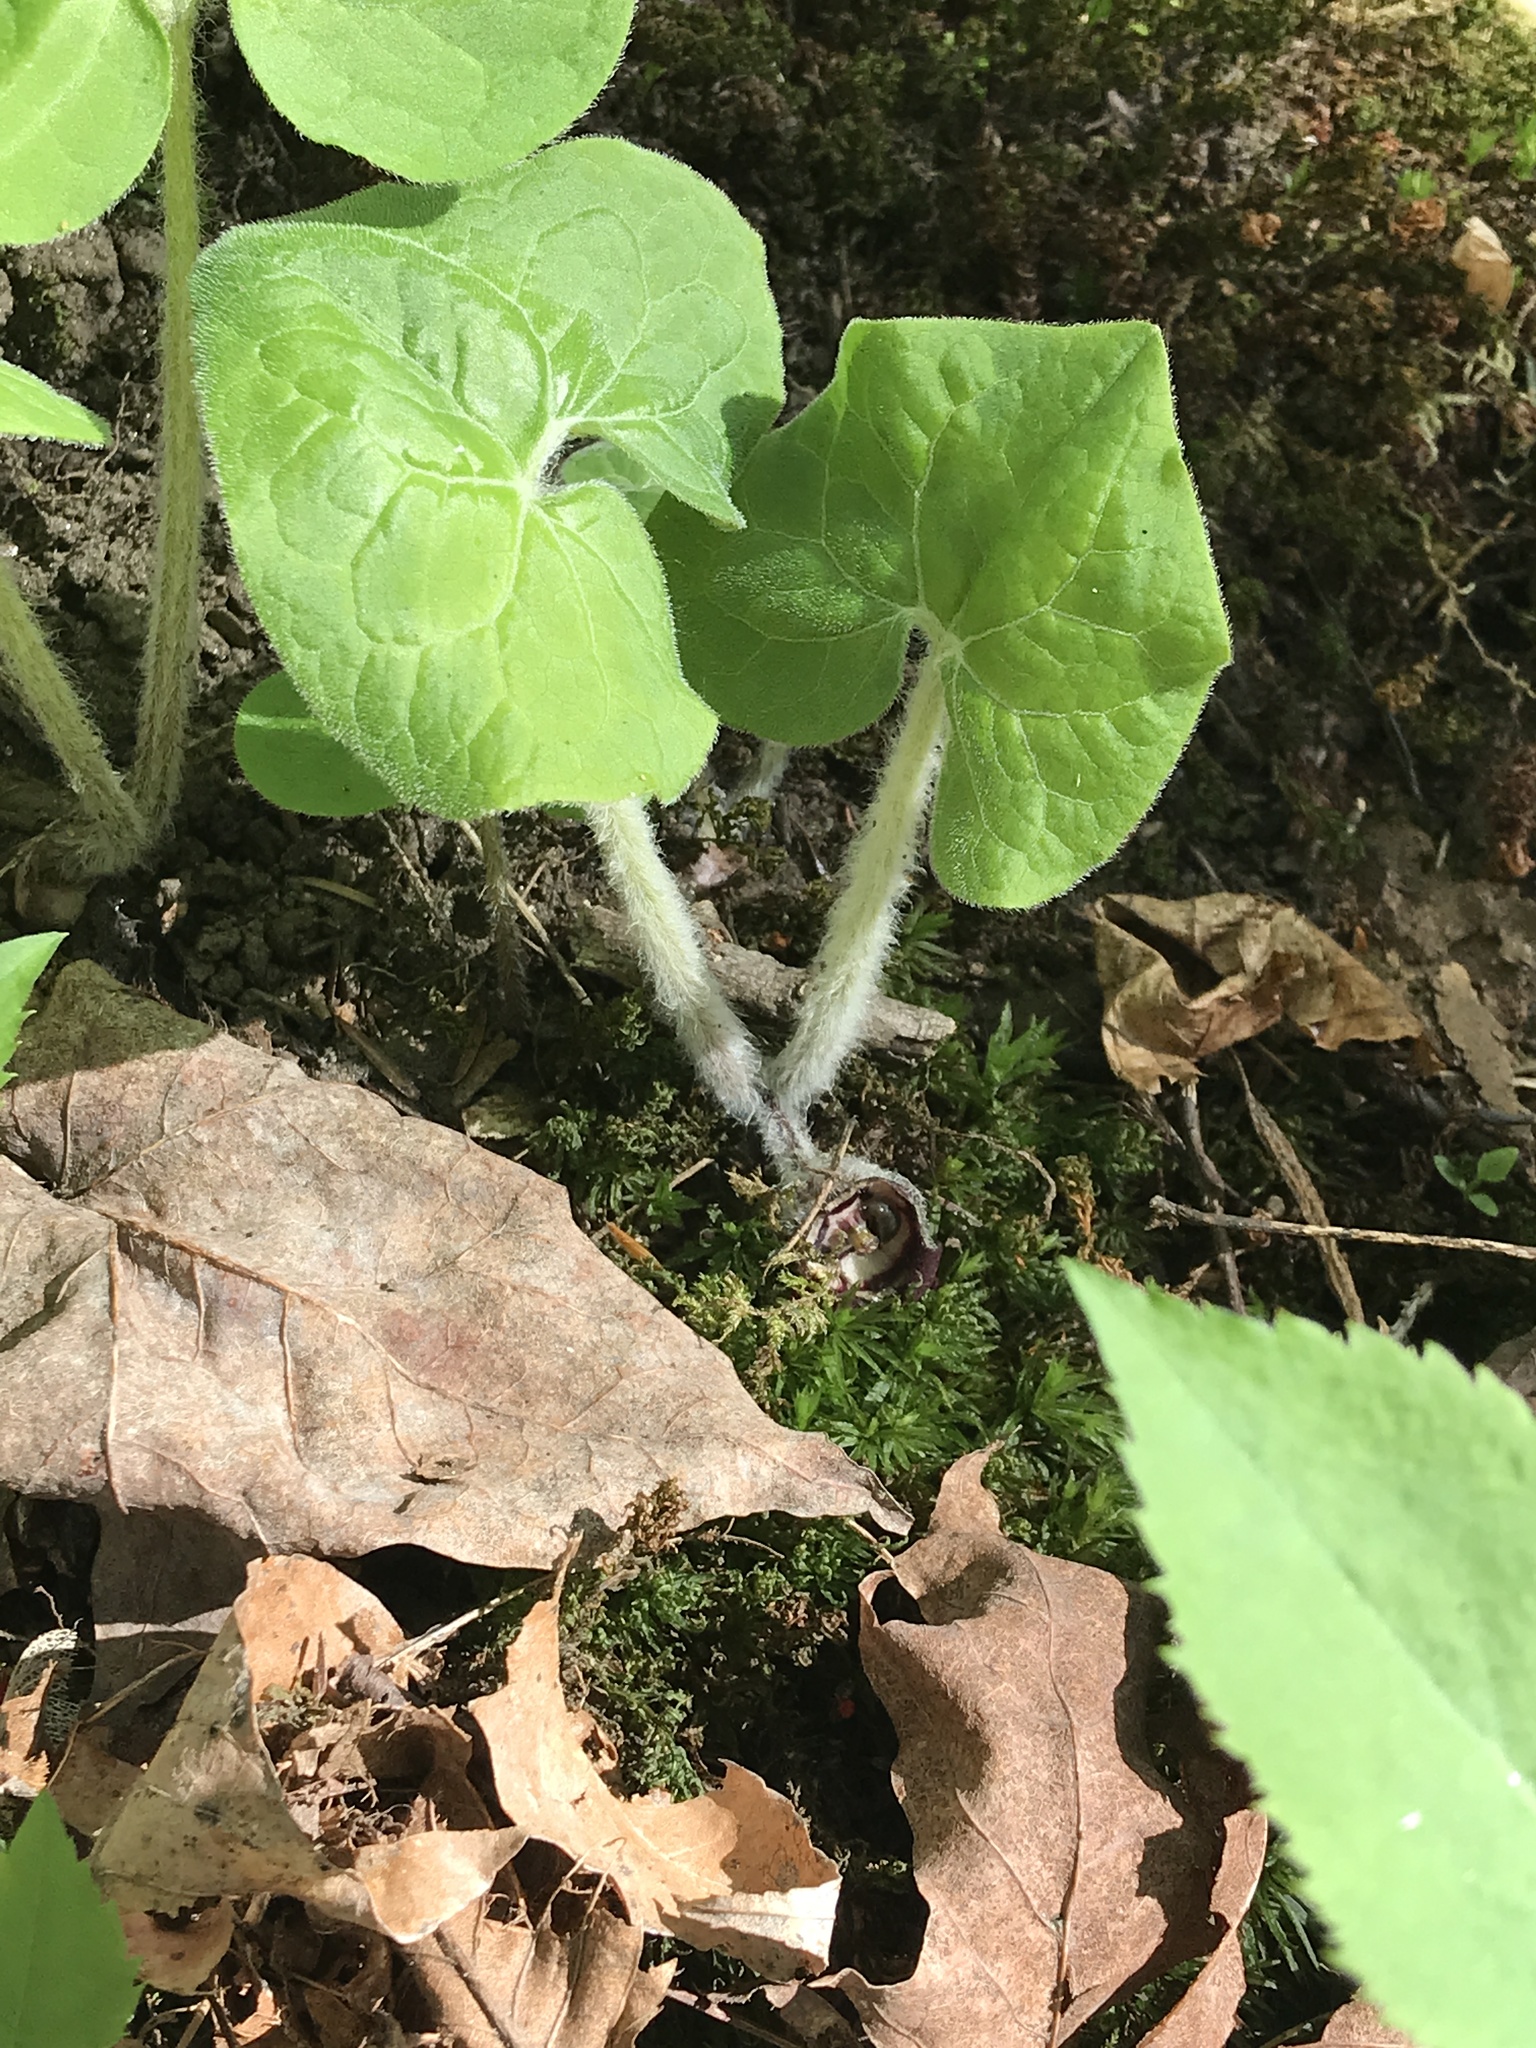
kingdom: Plantae
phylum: Tracheophyta
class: Magnoliopsida
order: Piperales
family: Aristolochiaceae
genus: Asarum
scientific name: Asarum canadense
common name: Wild ginger
